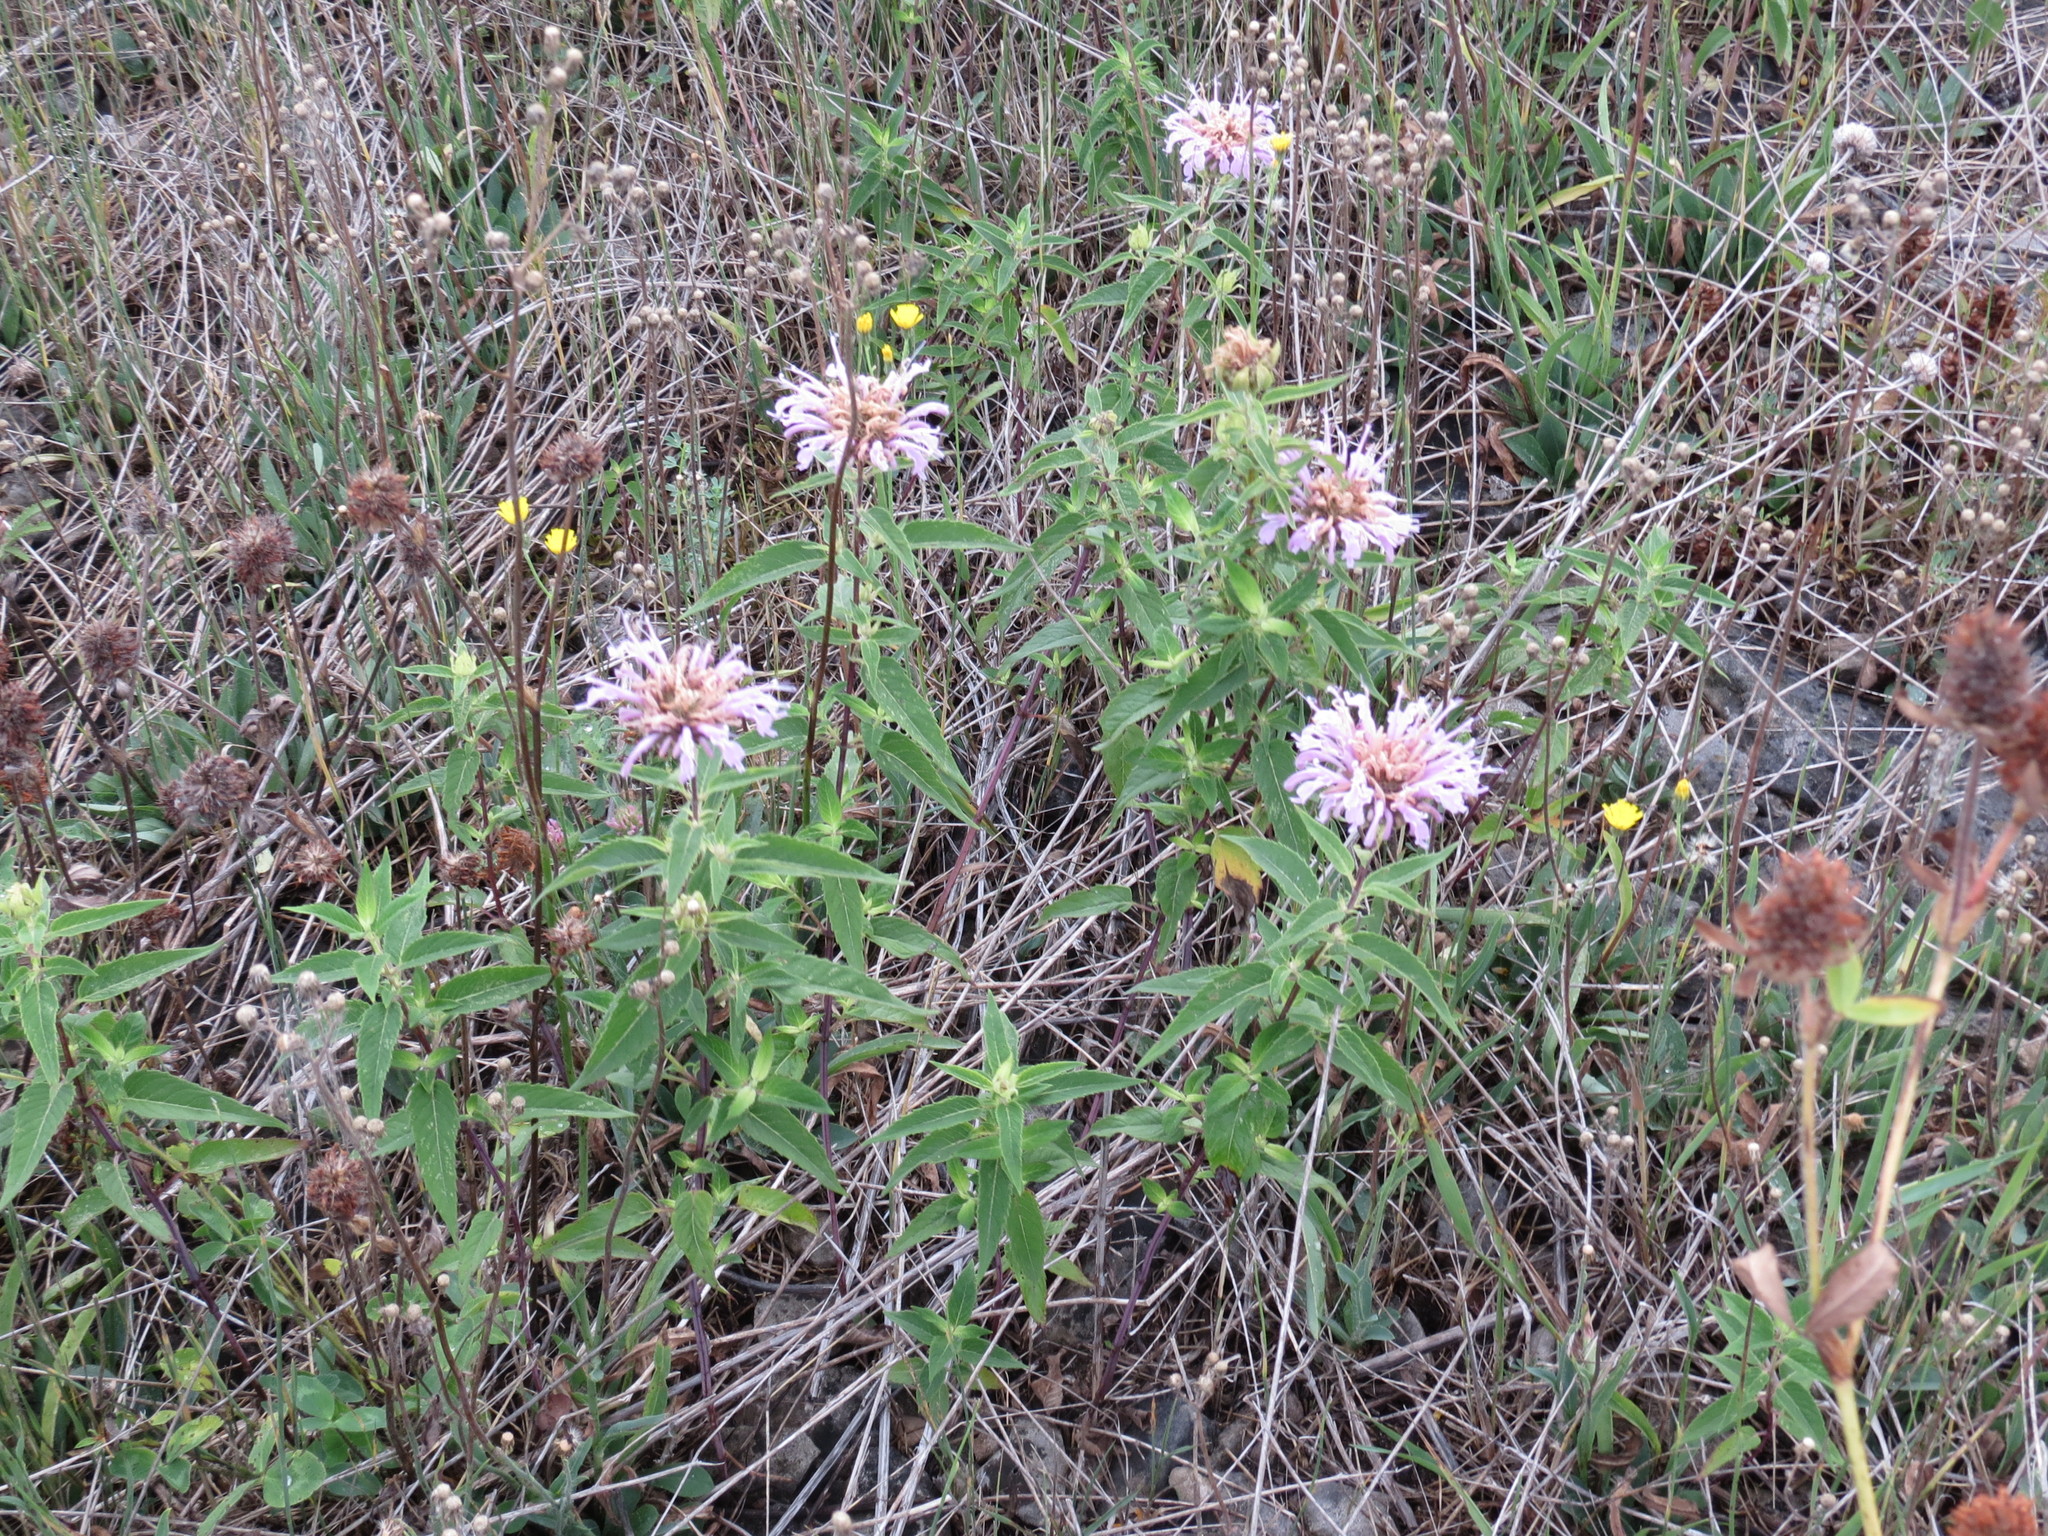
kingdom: Plantae
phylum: Tracheophyta
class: Magnoliopsida
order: Lamiales
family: Lamiaceae
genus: Monarda
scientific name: Monarda fistulosa
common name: Purple beebalm
